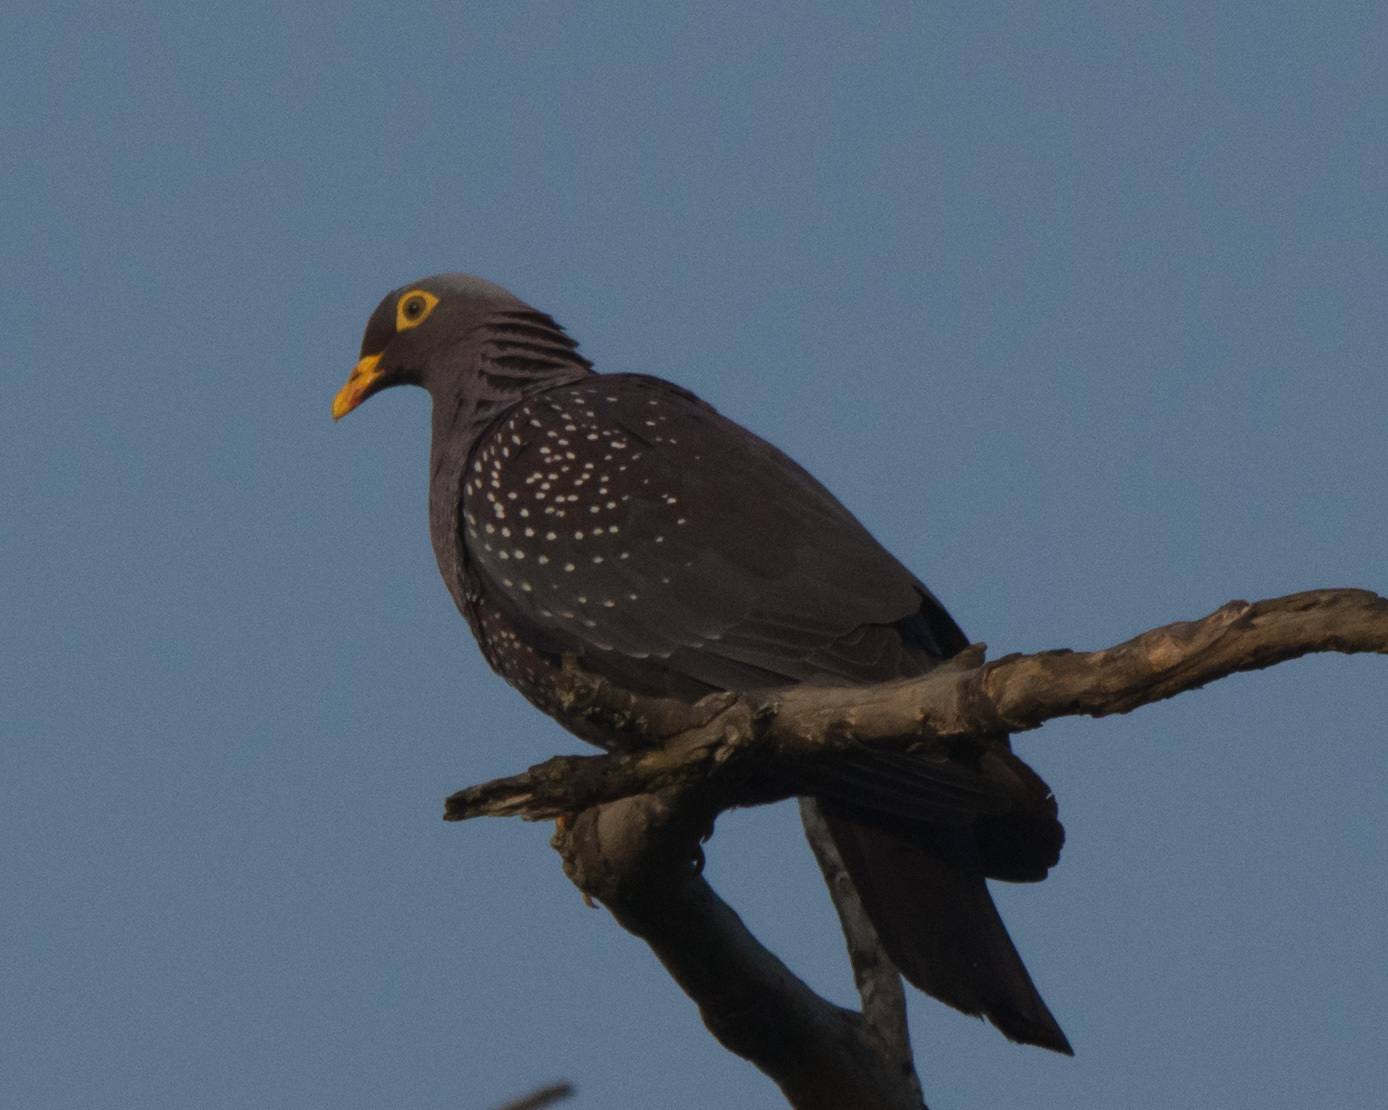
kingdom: Animalia
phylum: Chordata
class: Aves
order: Columbiformes
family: Columbidae
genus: Columba
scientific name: Columba arquatrix
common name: African olive pigeon
